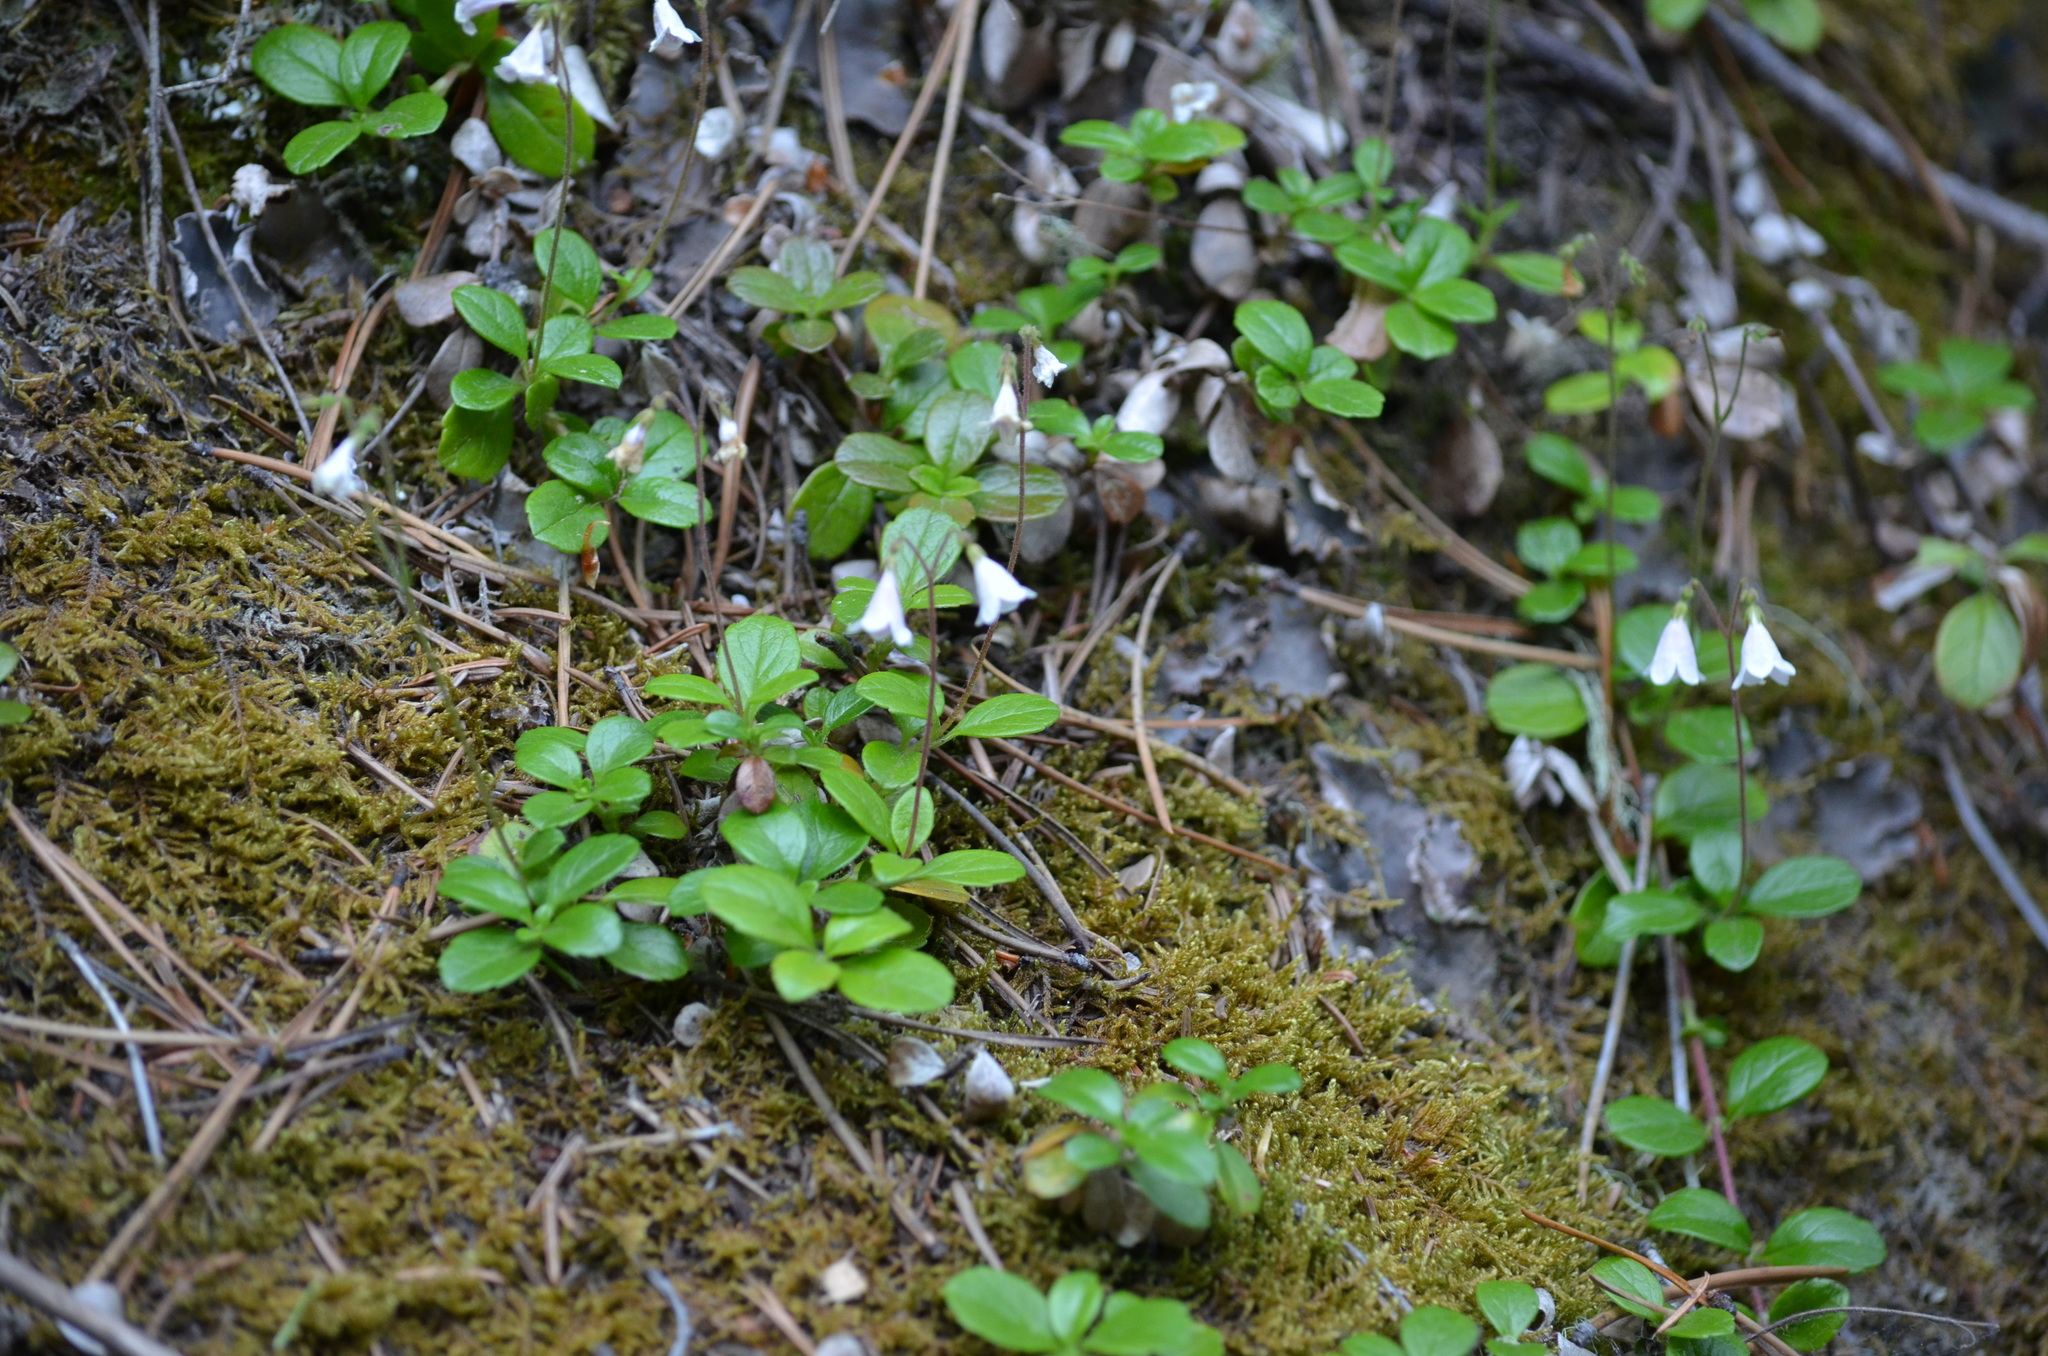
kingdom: Plantae
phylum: Tracheophyta
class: Magnoliopsida
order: Dipsacales
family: Caprifoliaceae
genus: Linnaea
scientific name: Linnaea borealis
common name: Twinflower
